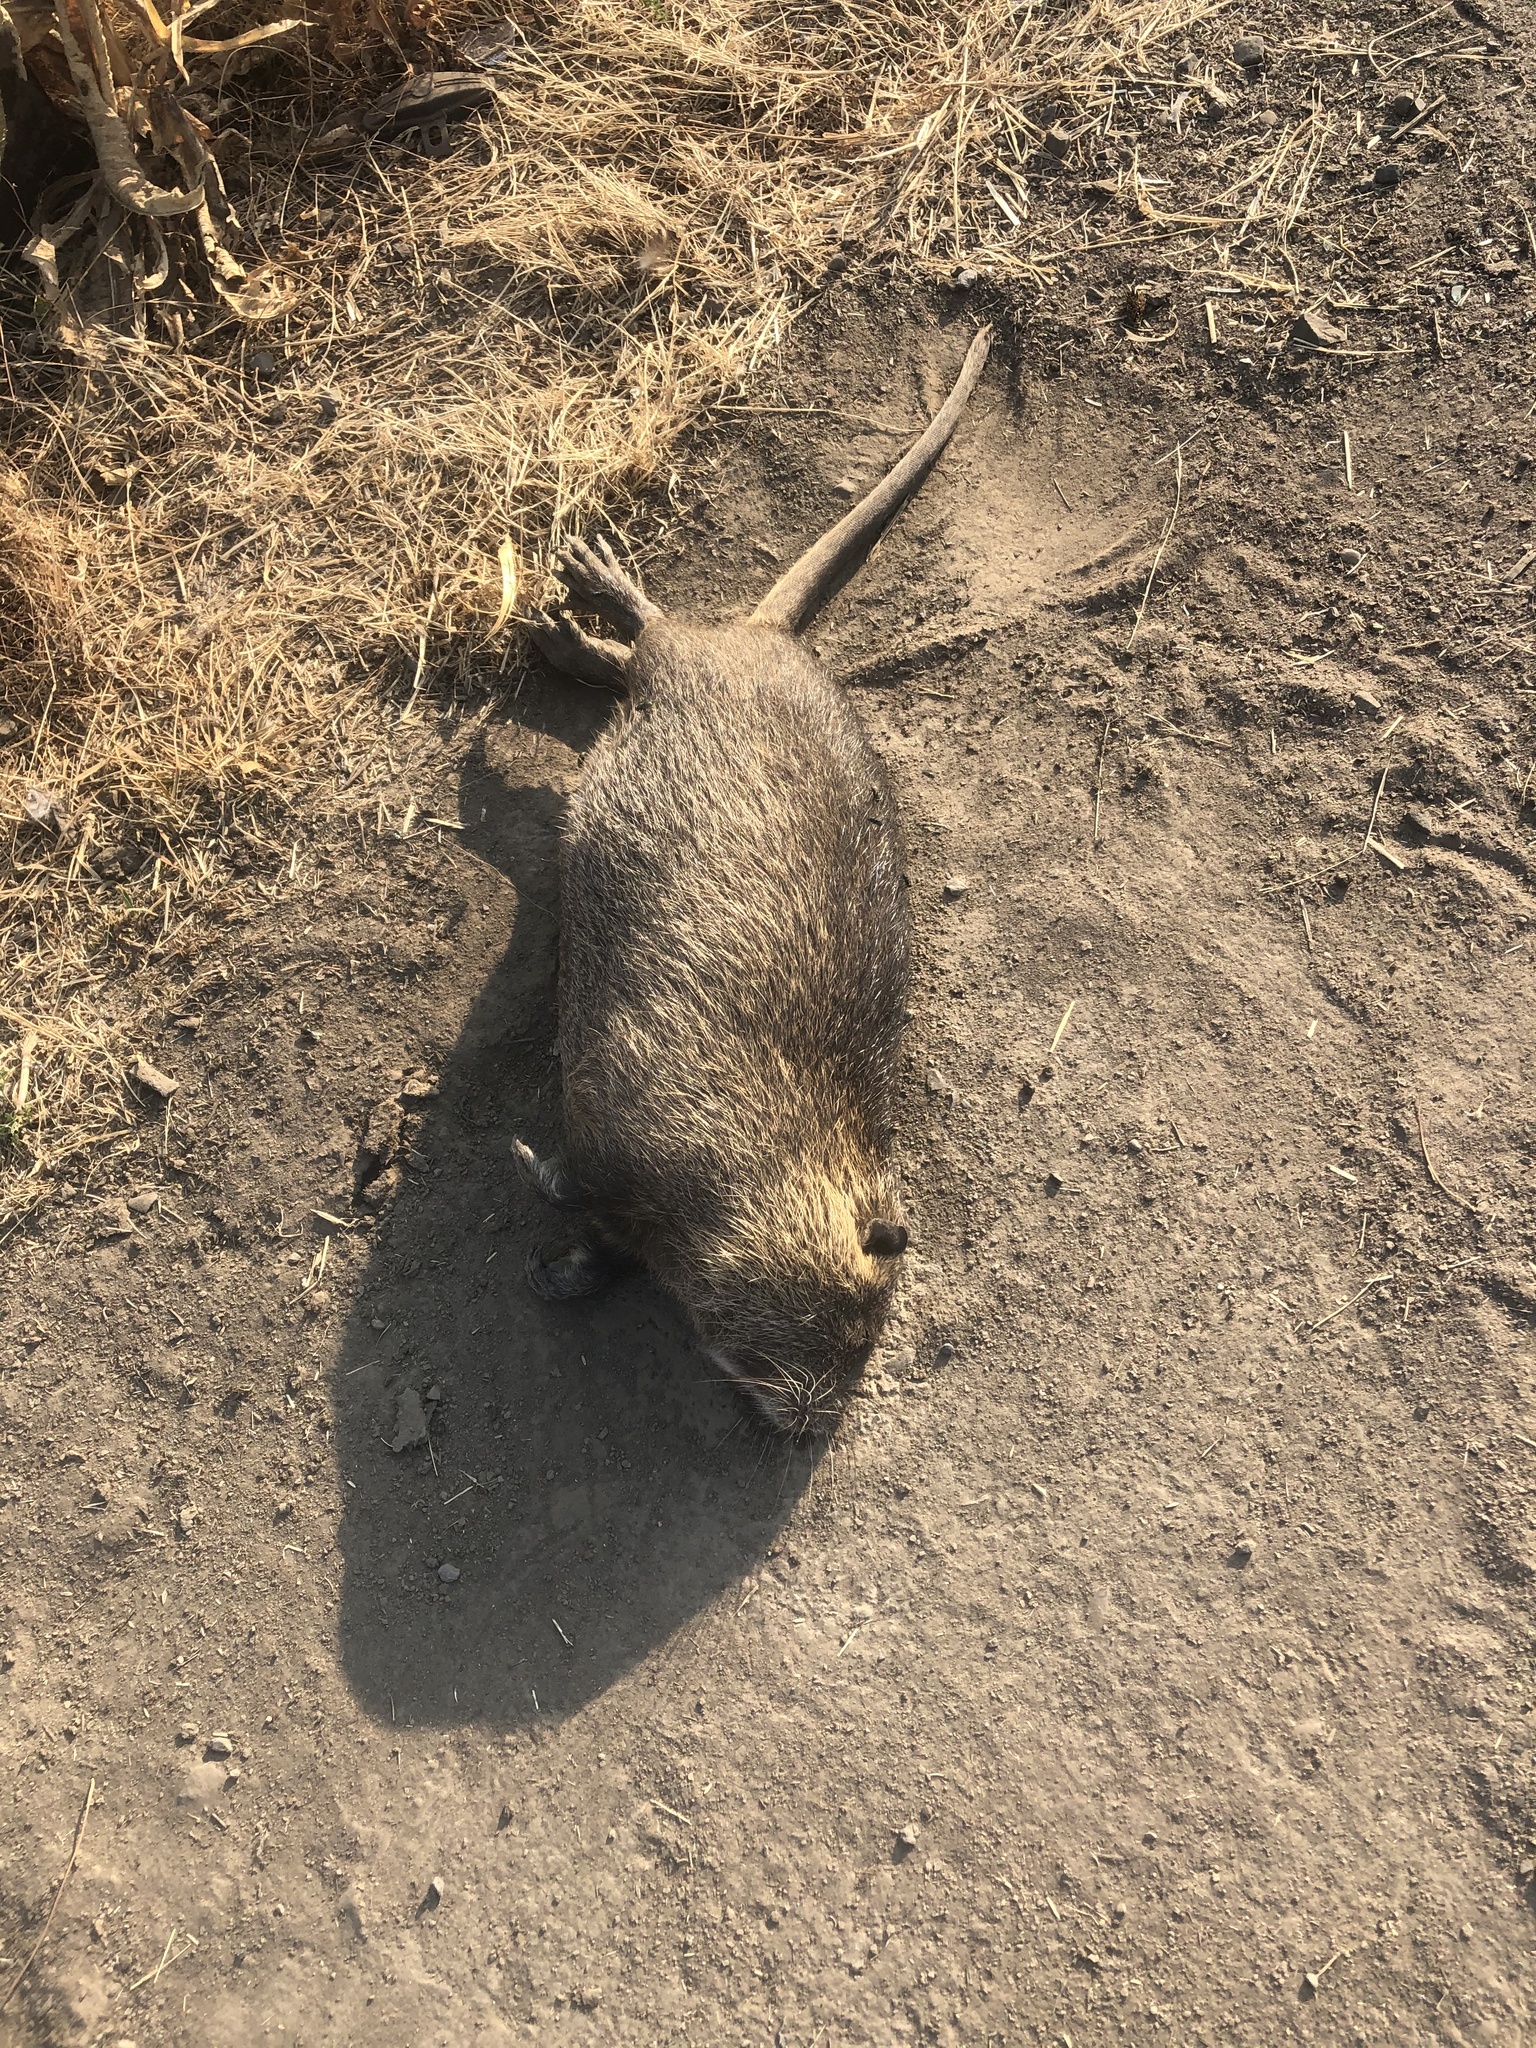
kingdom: Animalia
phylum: Chordata
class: Mammalia
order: Rodentia
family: Myocastoridae
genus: Myocastor
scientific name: Myocastor coypus
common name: Coypu
